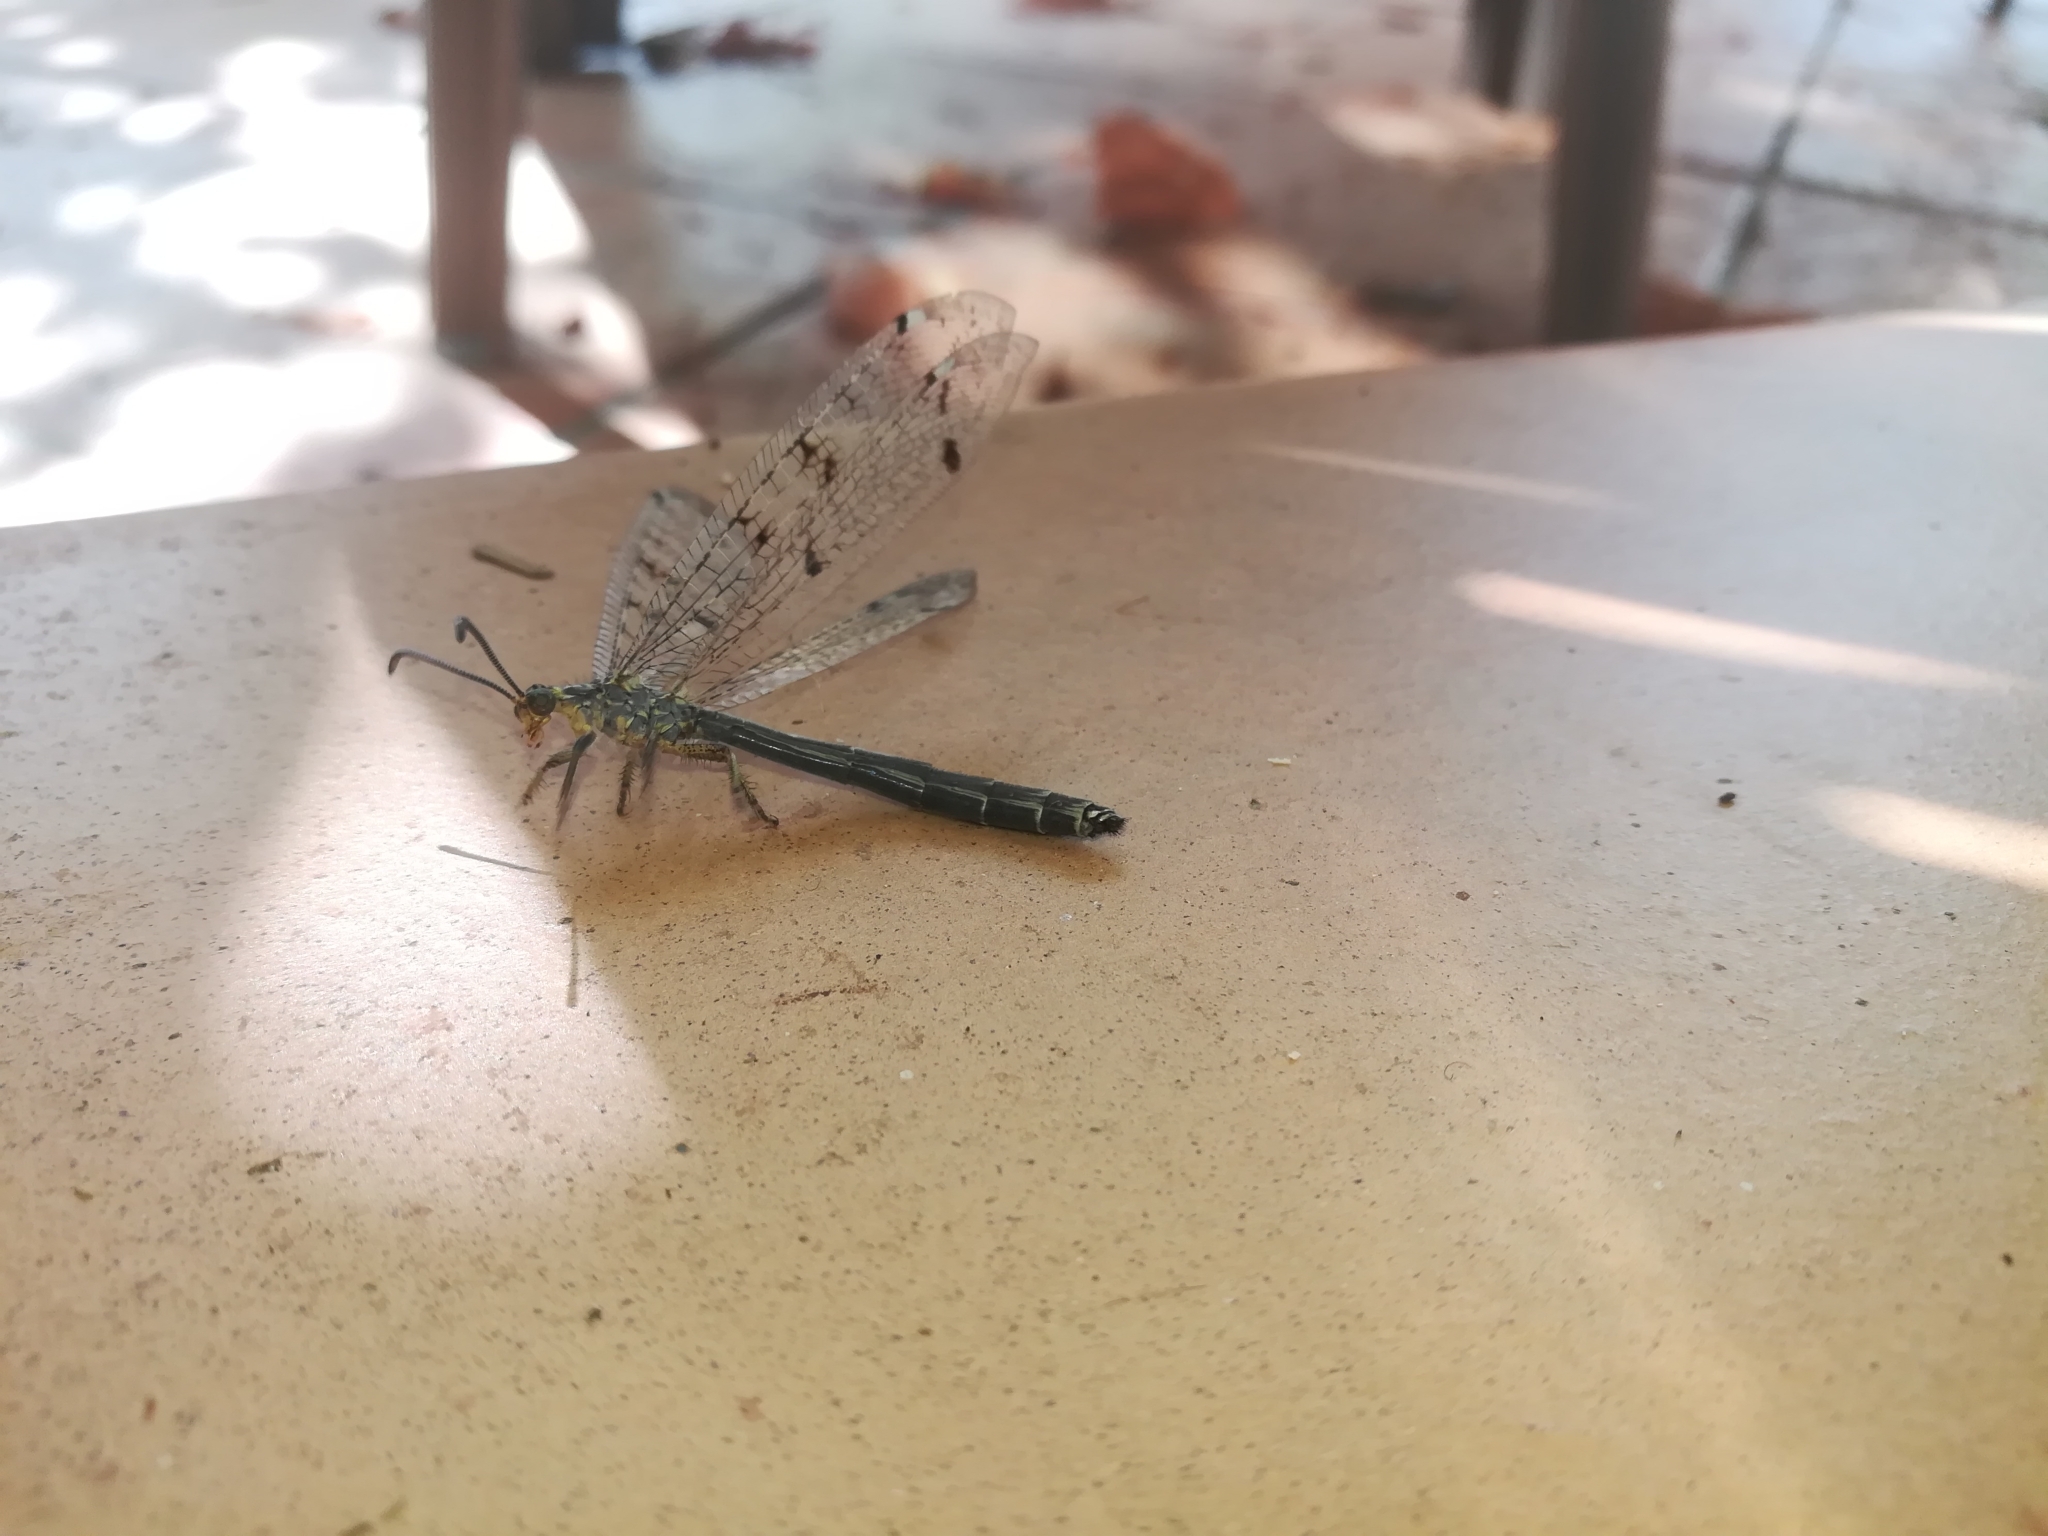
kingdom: Animalia
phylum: Arthropoda
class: Insecta
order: Neuroptera
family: Myrmeleontidae
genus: Distoleon
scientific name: Distoleon tetragrammicus
